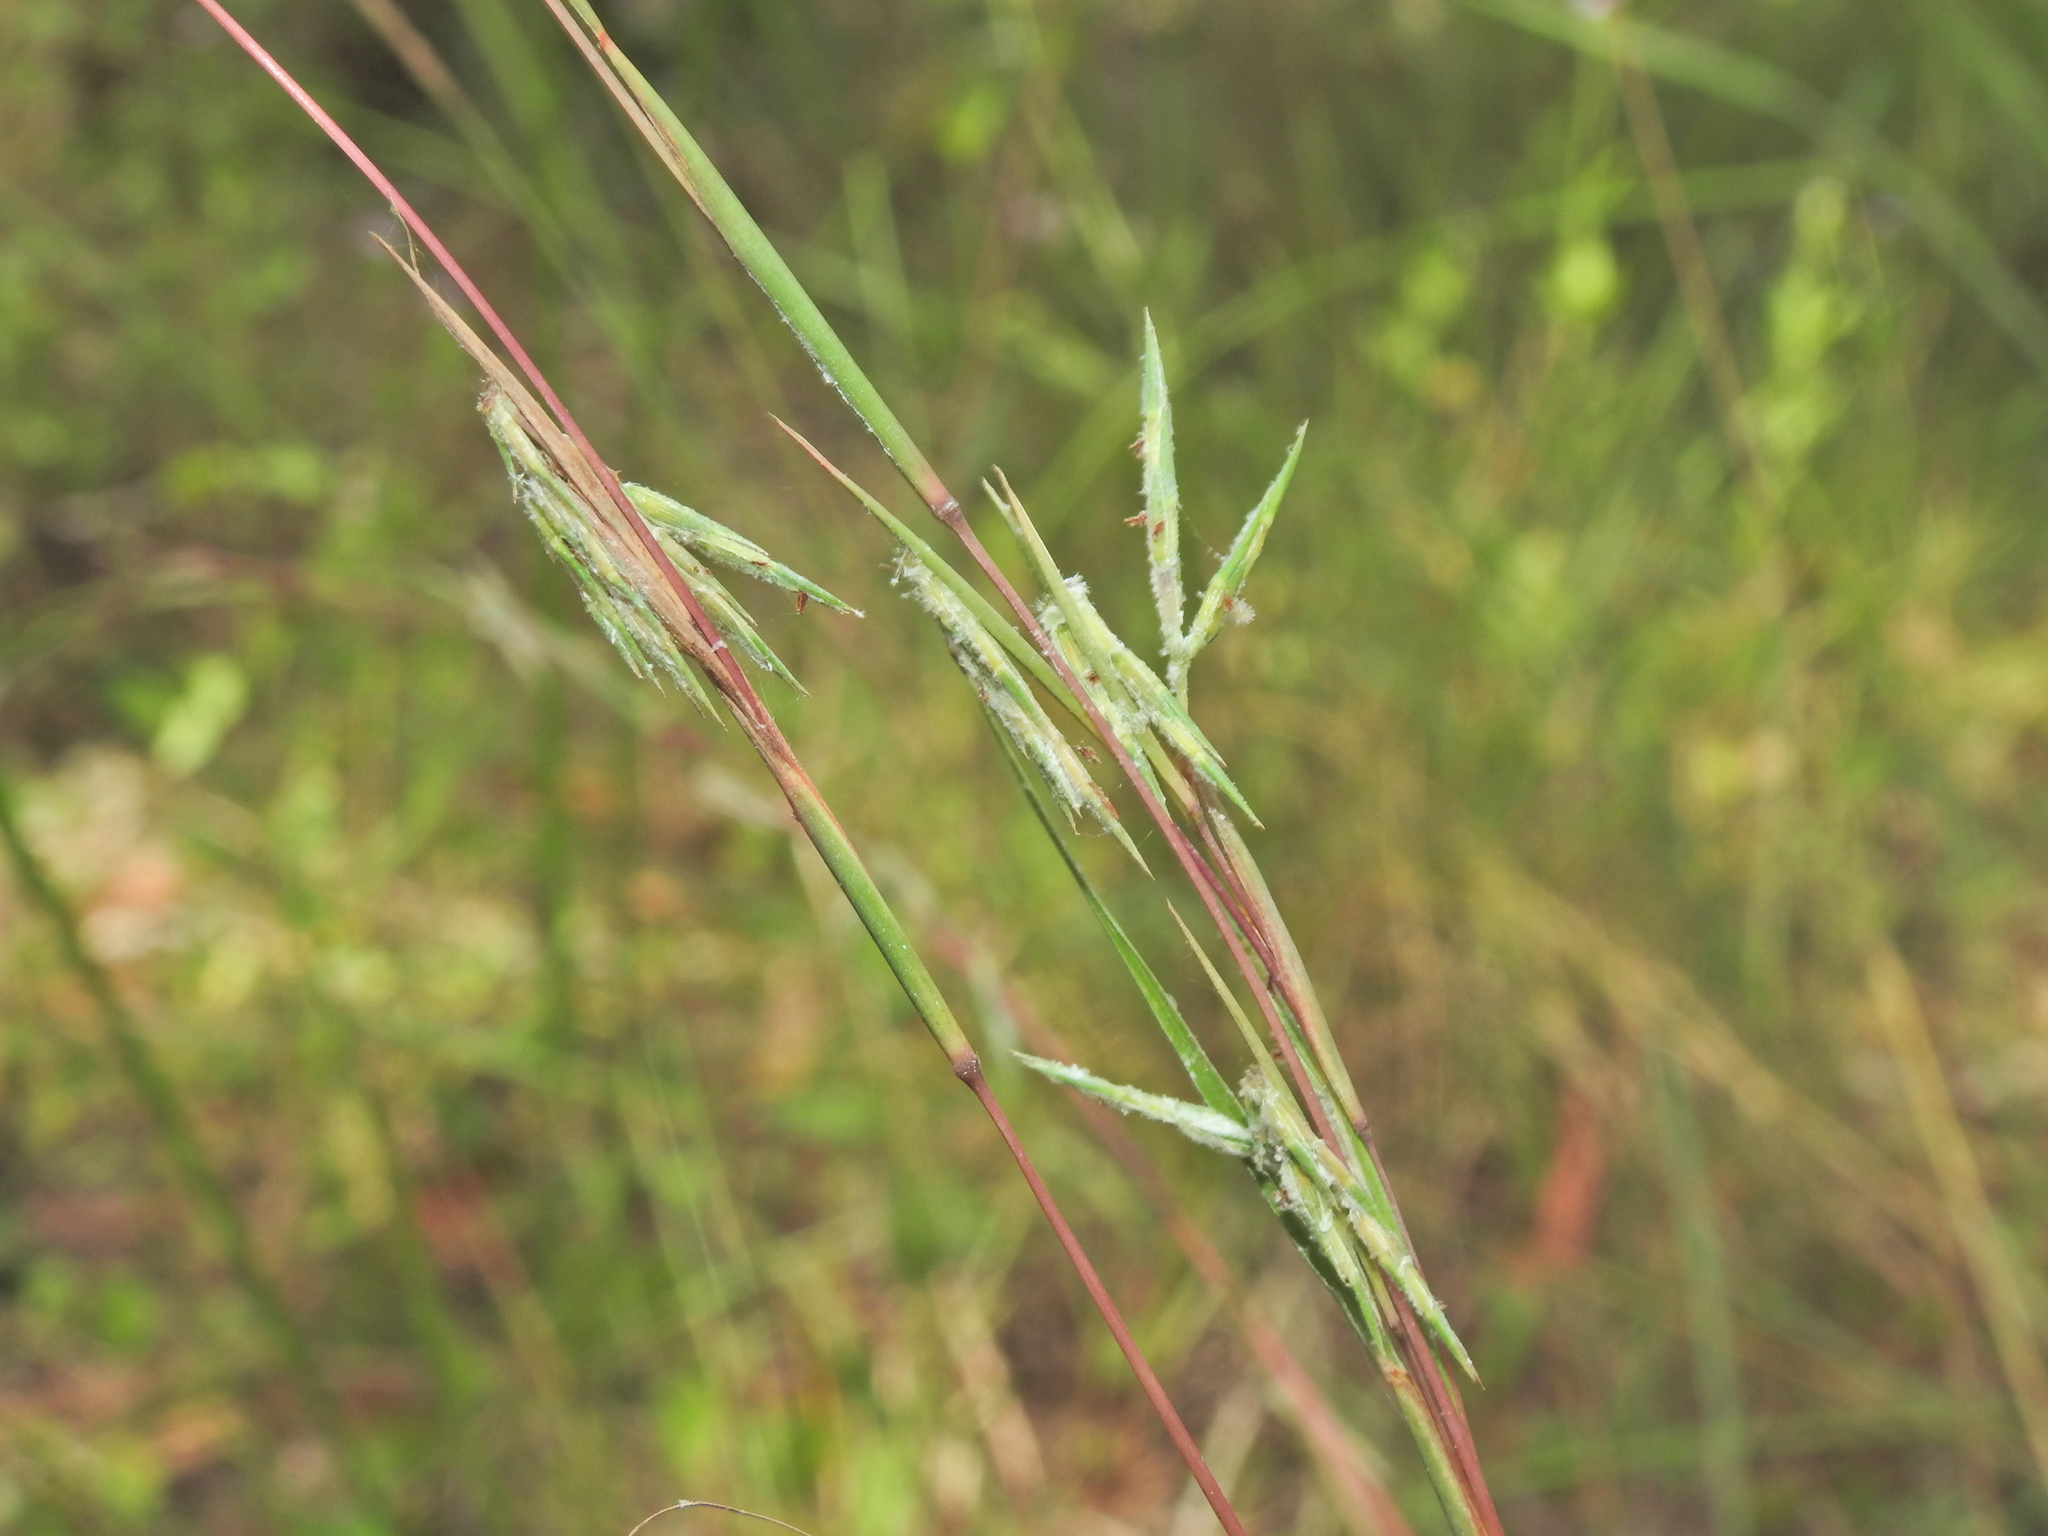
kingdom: Plantae
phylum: Tracheophyta
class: Liliopsida
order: Poales
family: Poaceae
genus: Cymbopogon
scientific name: Cymbopogon refractus
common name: Barbwire grass
